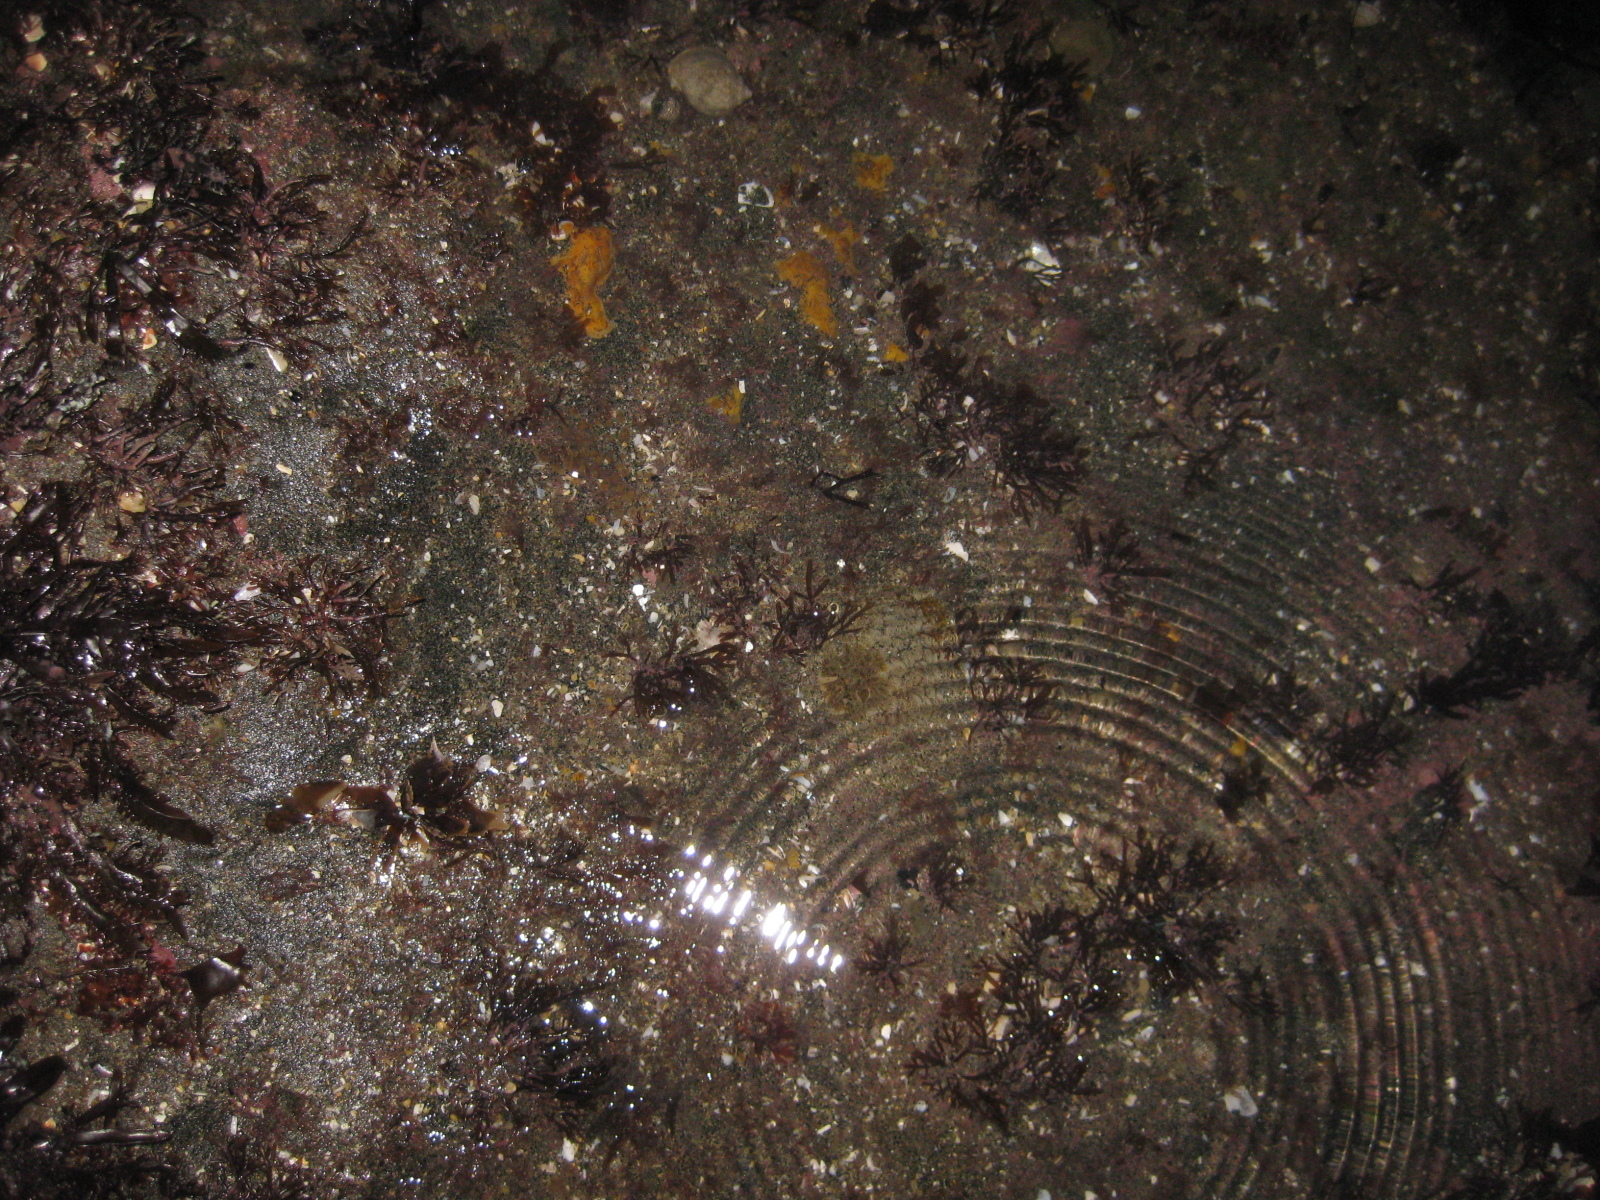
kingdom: Animalia
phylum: Mollusca
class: Gastropoda
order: Nudibranchia
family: Dorididae
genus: Doris
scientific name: Doris wellingtonensis
